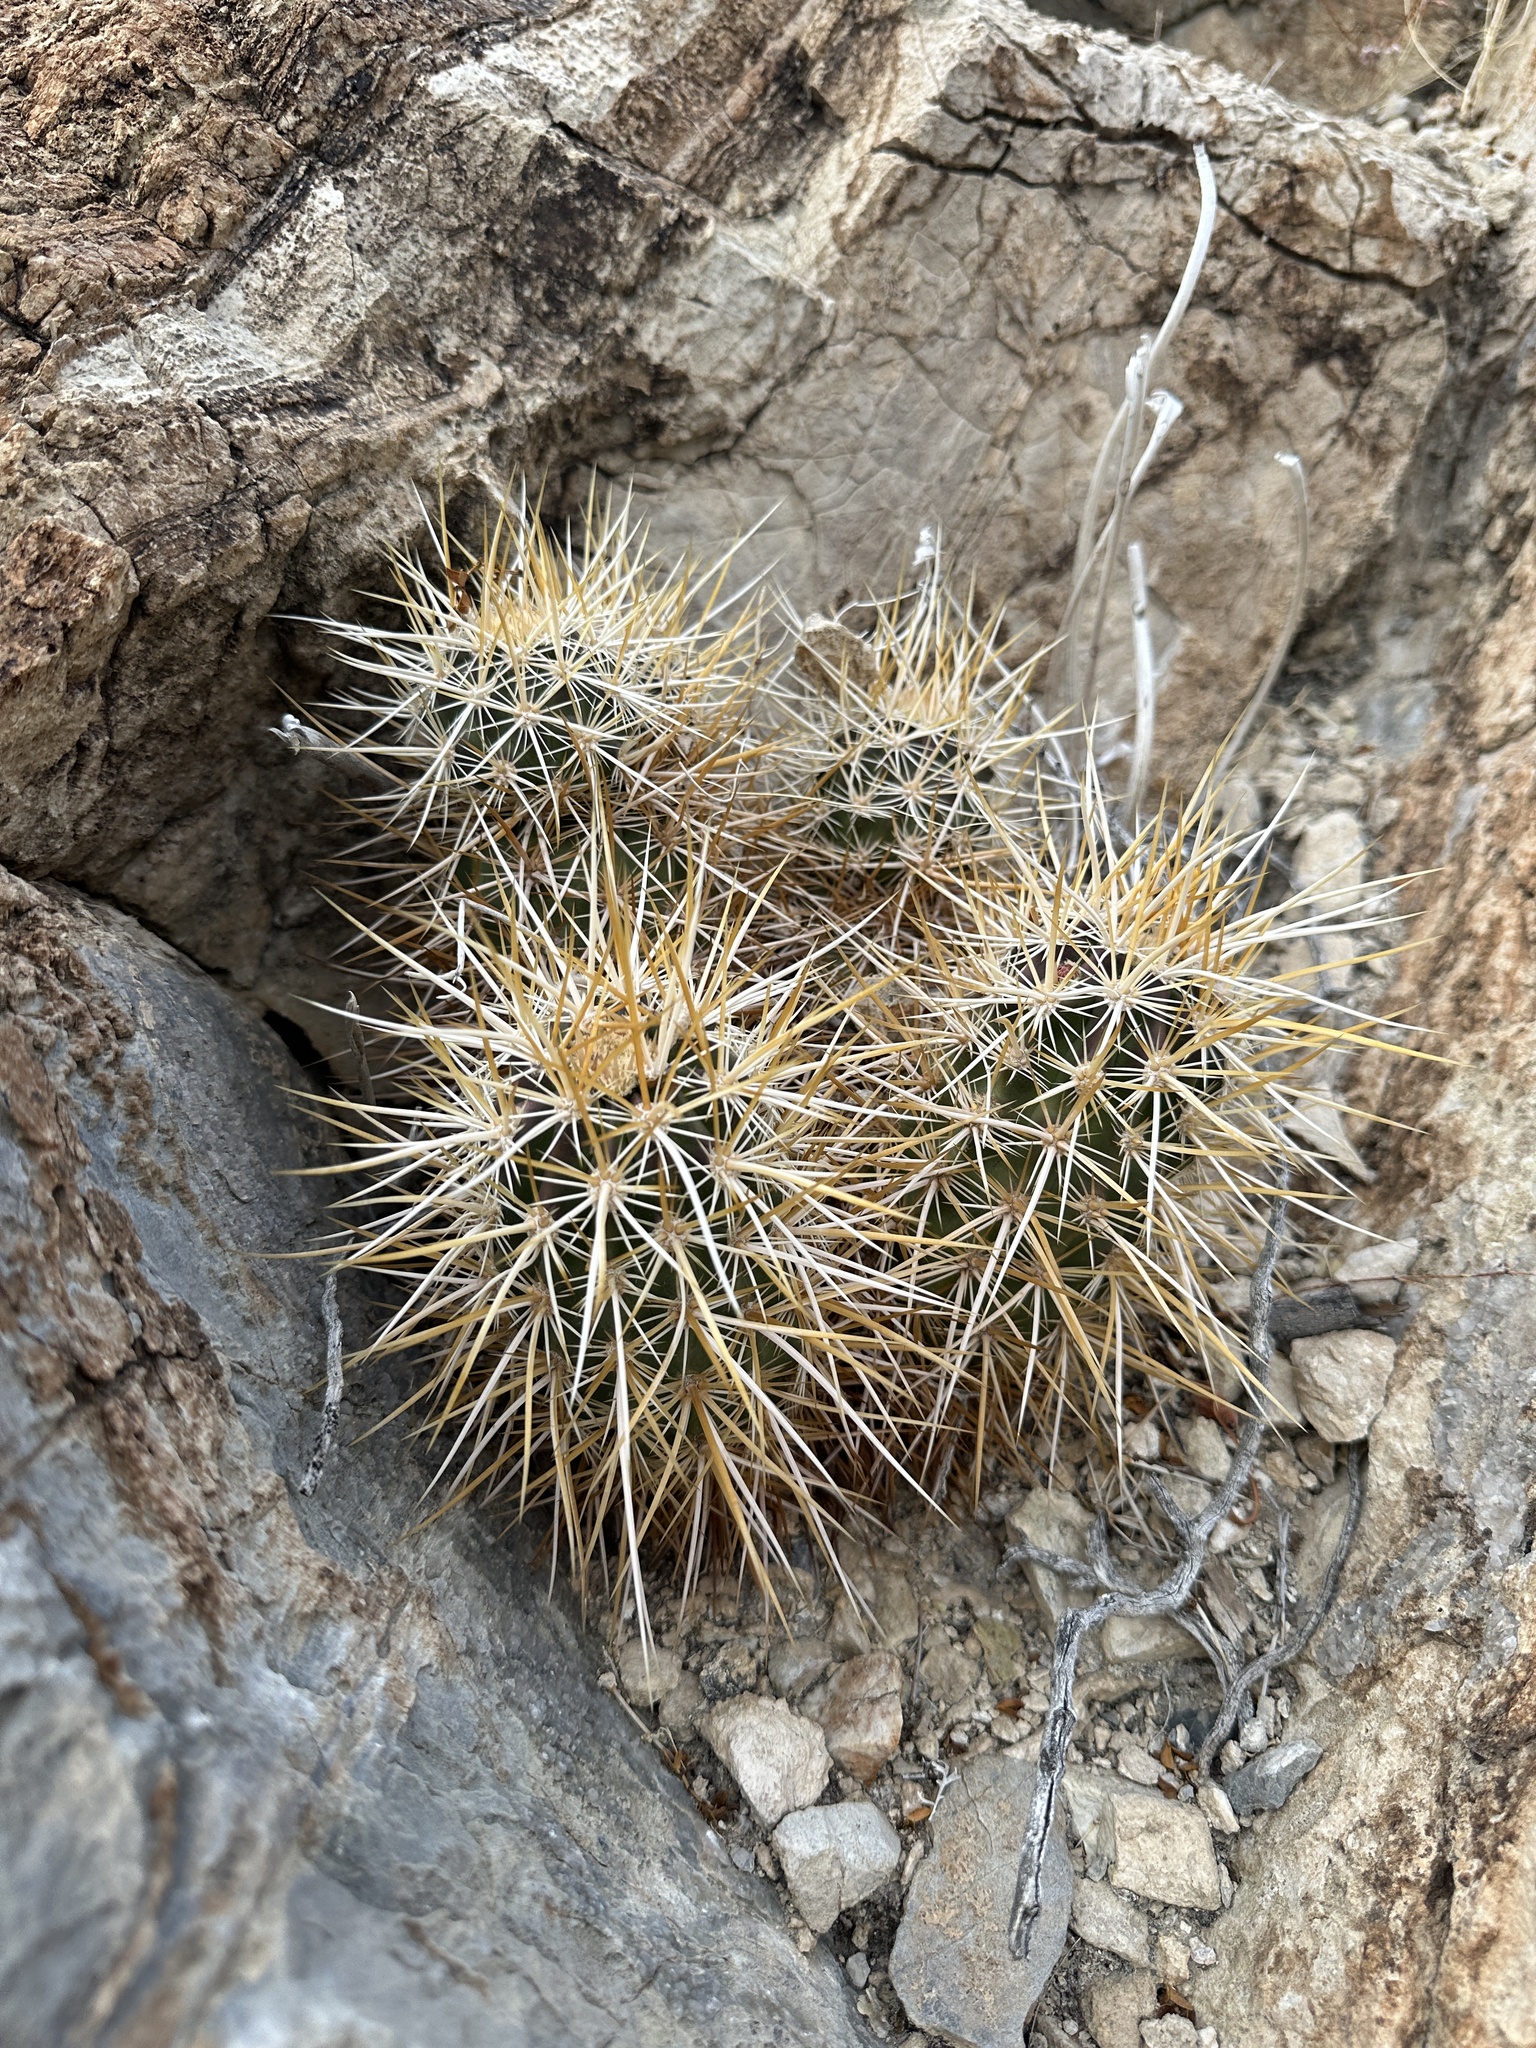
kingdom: Plantae
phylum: Tracheophyta
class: Magnoliopsida
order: Caryophyllales
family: Cactaceae
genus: Echinocereus
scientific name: Echinocereus engelmannii
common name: Engelmann's hedgehog cactus
